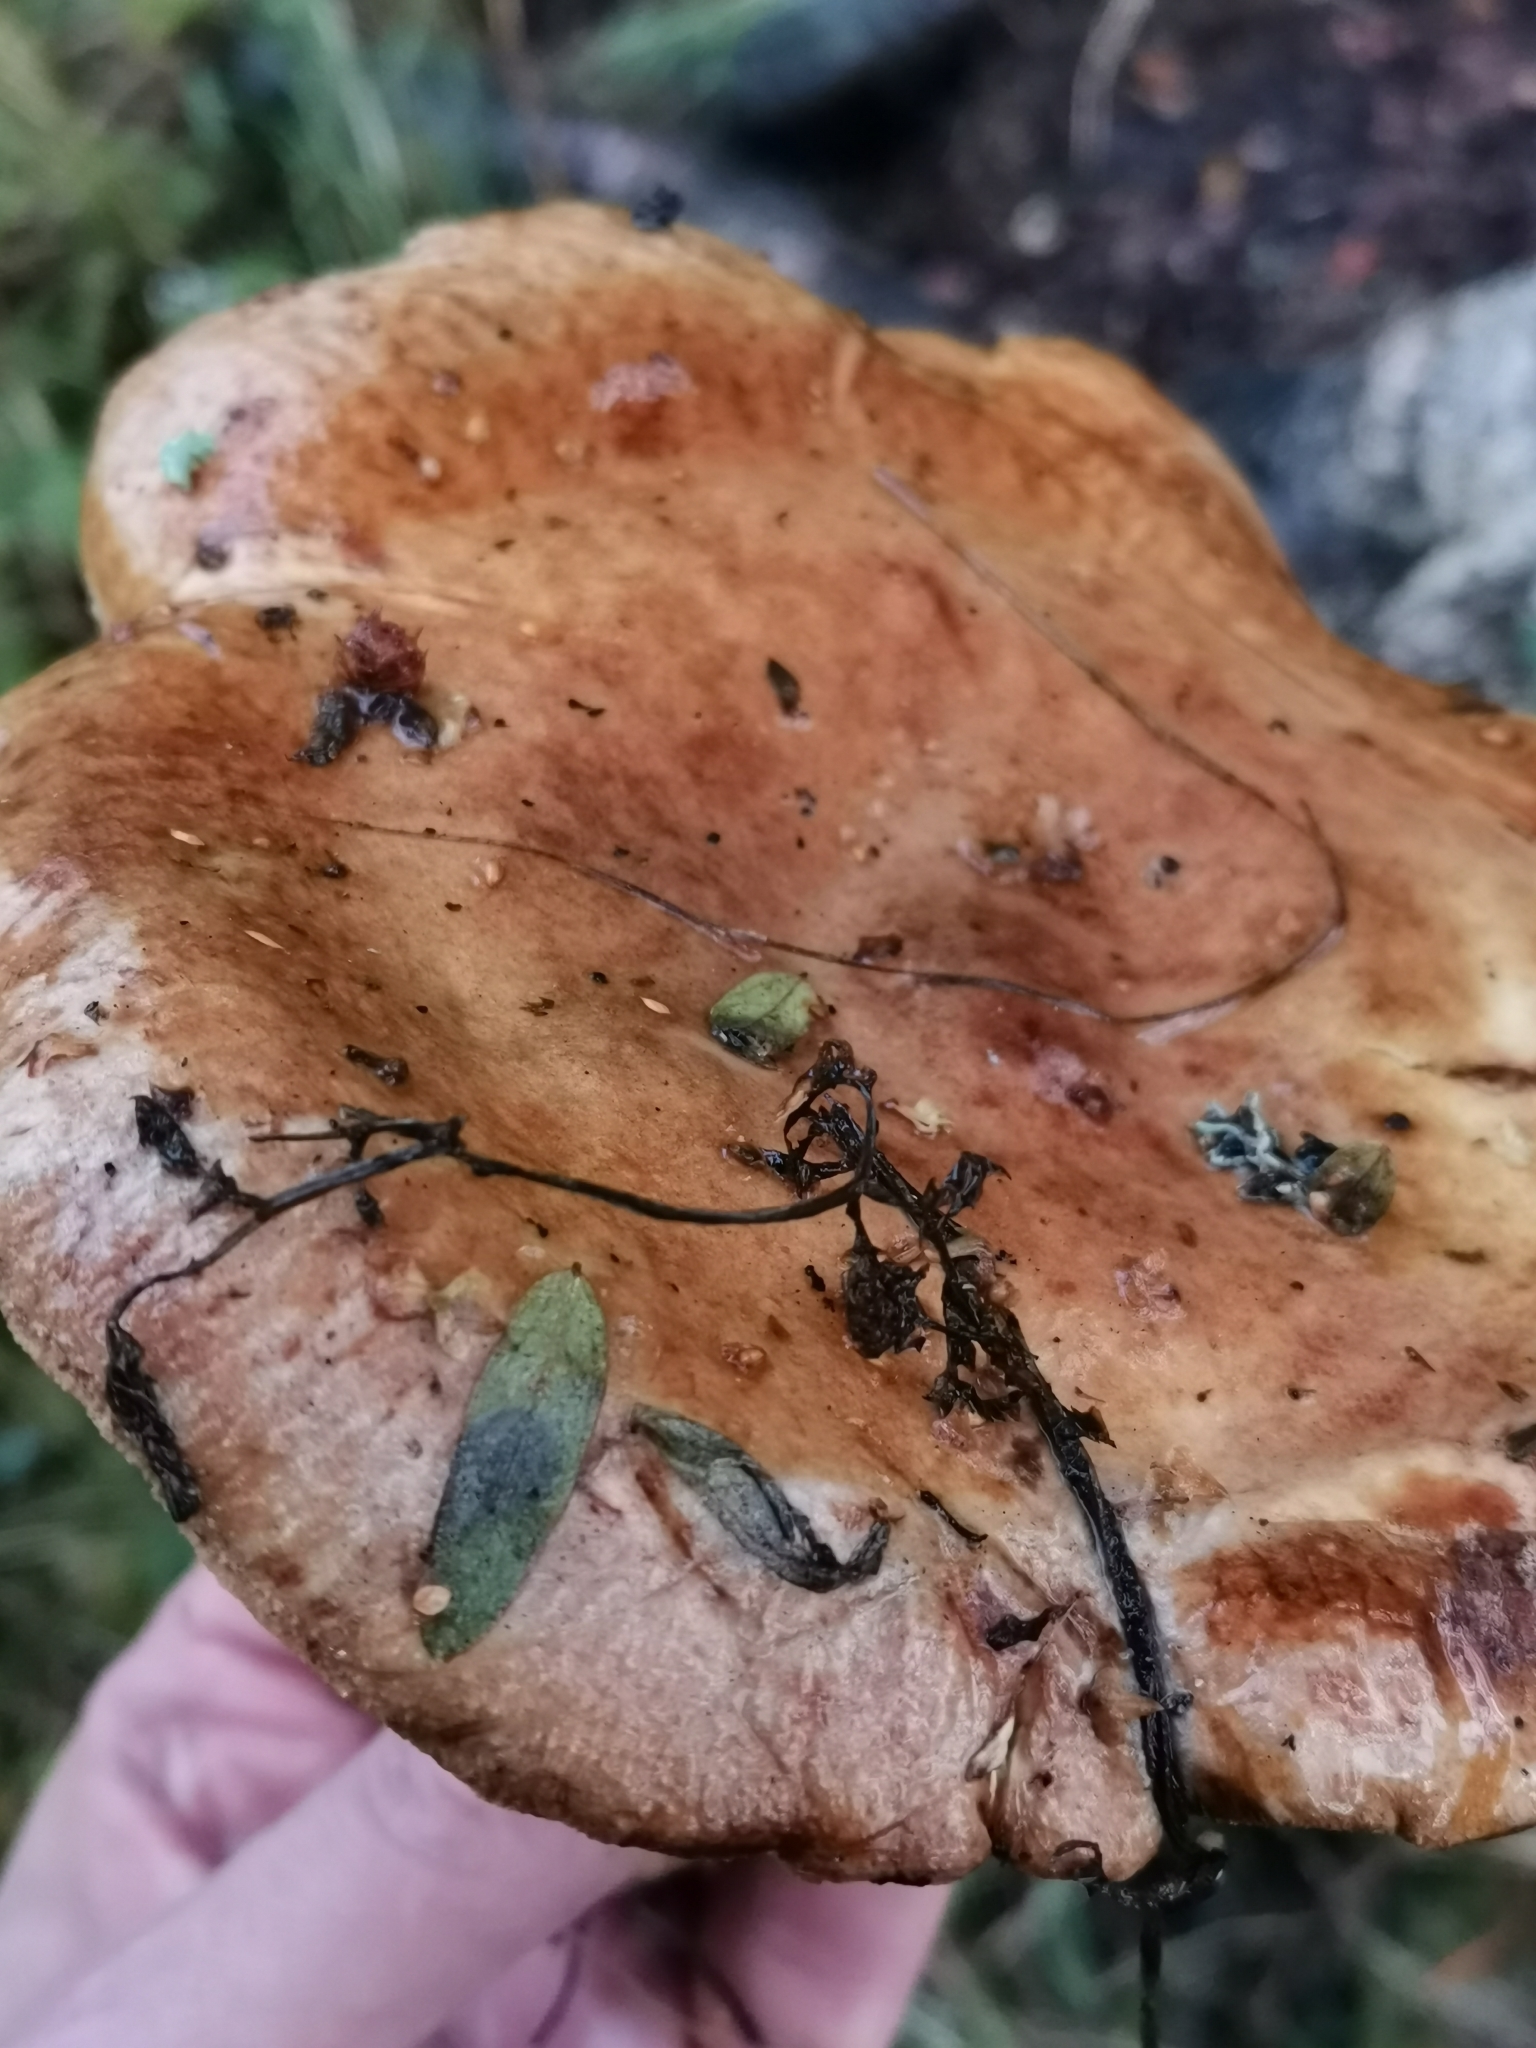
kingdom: Fungi
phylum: Basidiomycota
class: Agaricomycetes
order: Boletales
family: Paxillaceae
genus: Paxillus
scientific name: Paxillus involutus
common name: Brown roll rim
